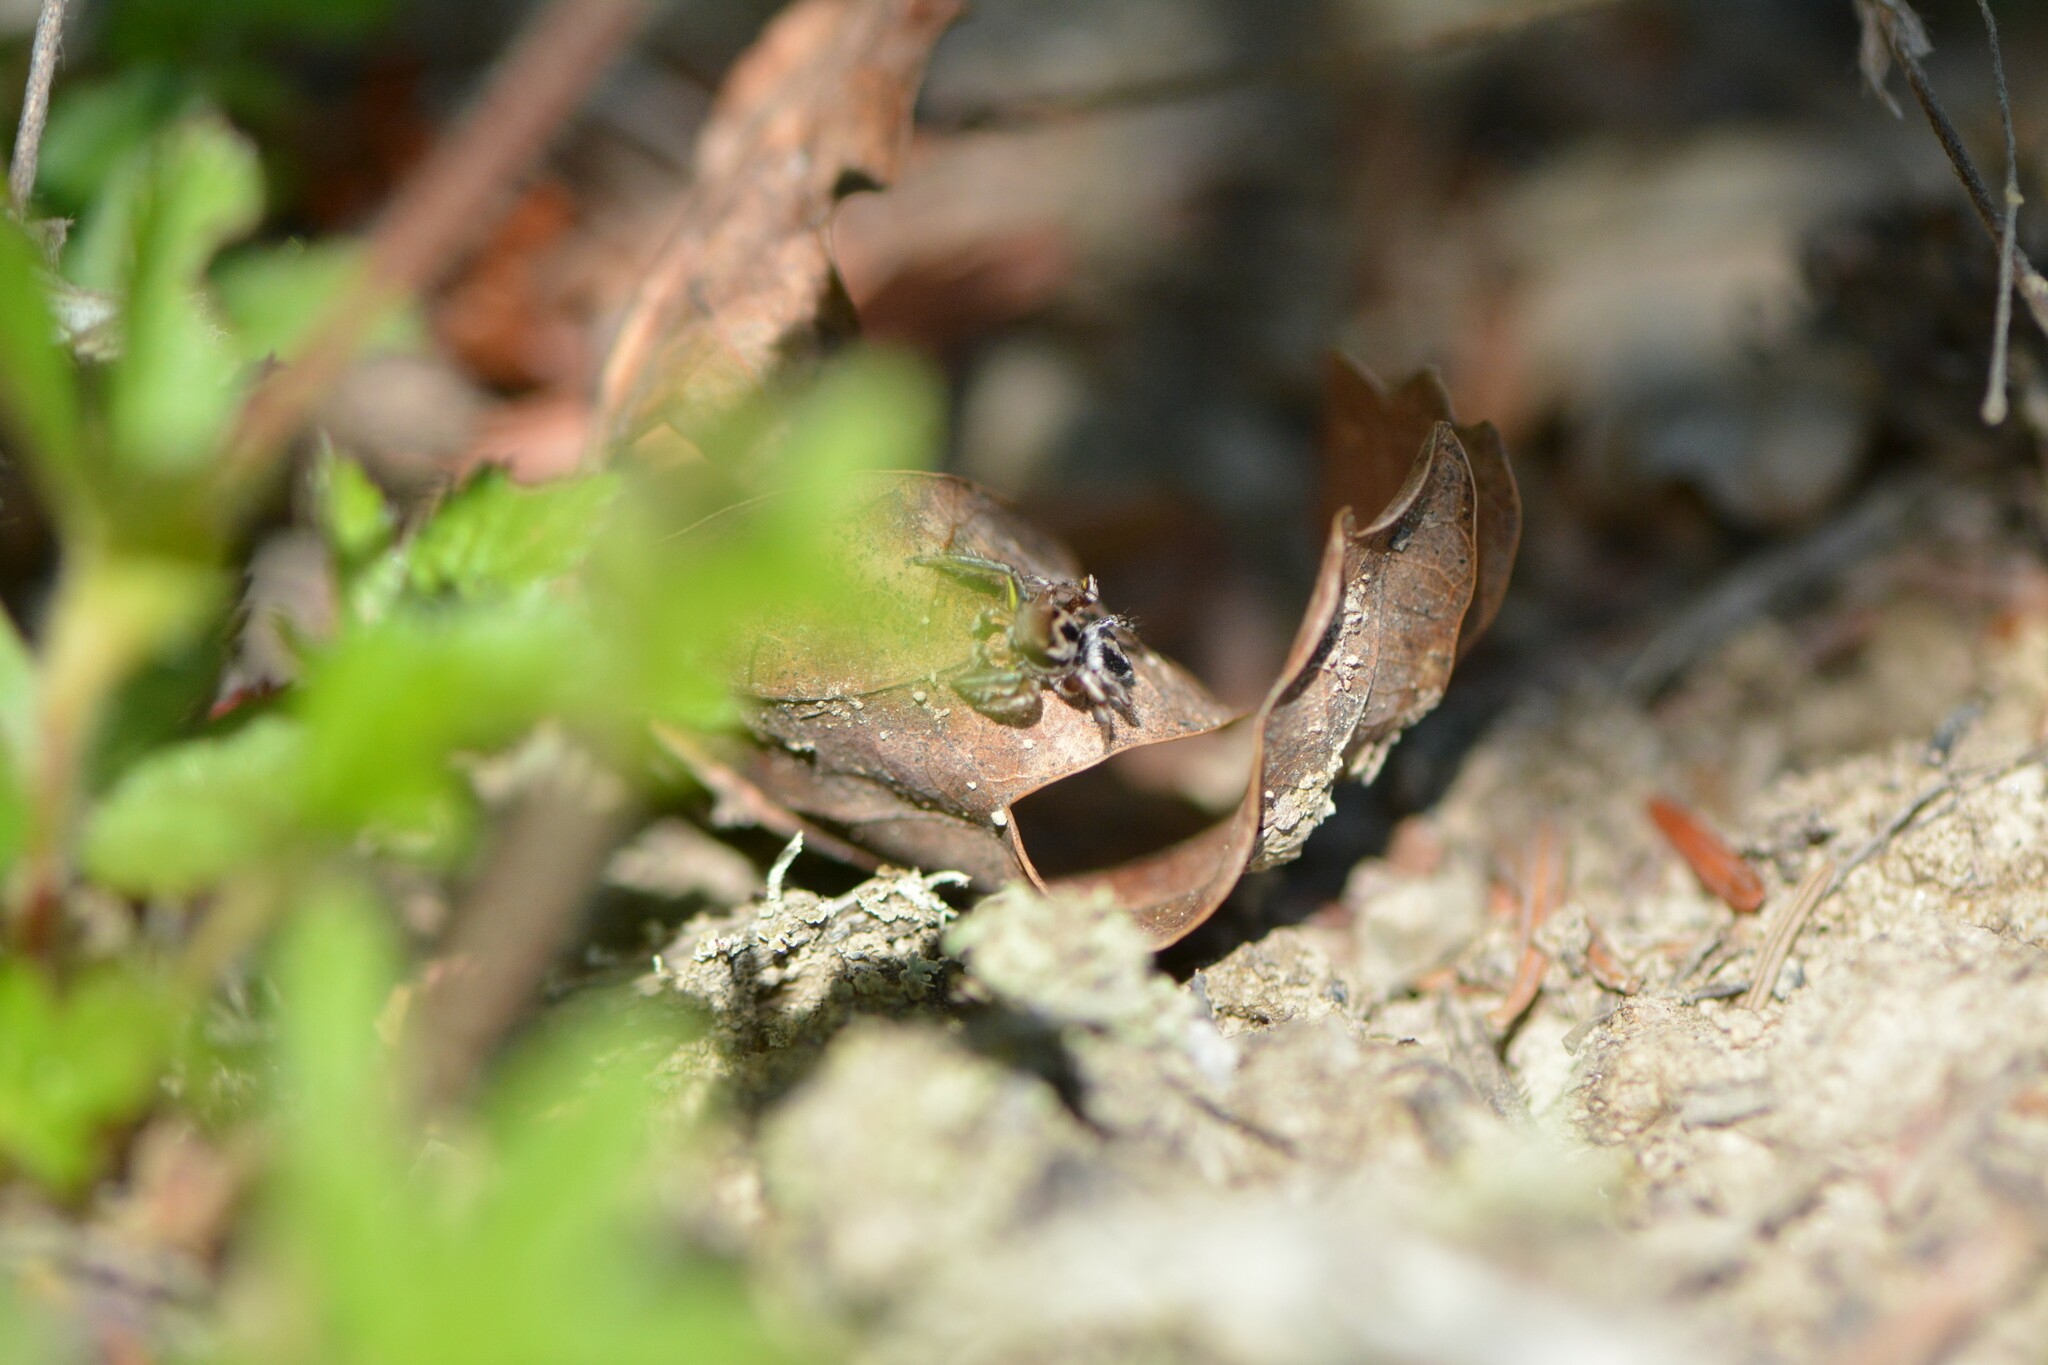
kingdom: Animalia
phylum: Arthropoda
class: Arachnida
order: Araneae
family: Salticidae
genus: Habronattus
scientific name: Habronattus viridipes
